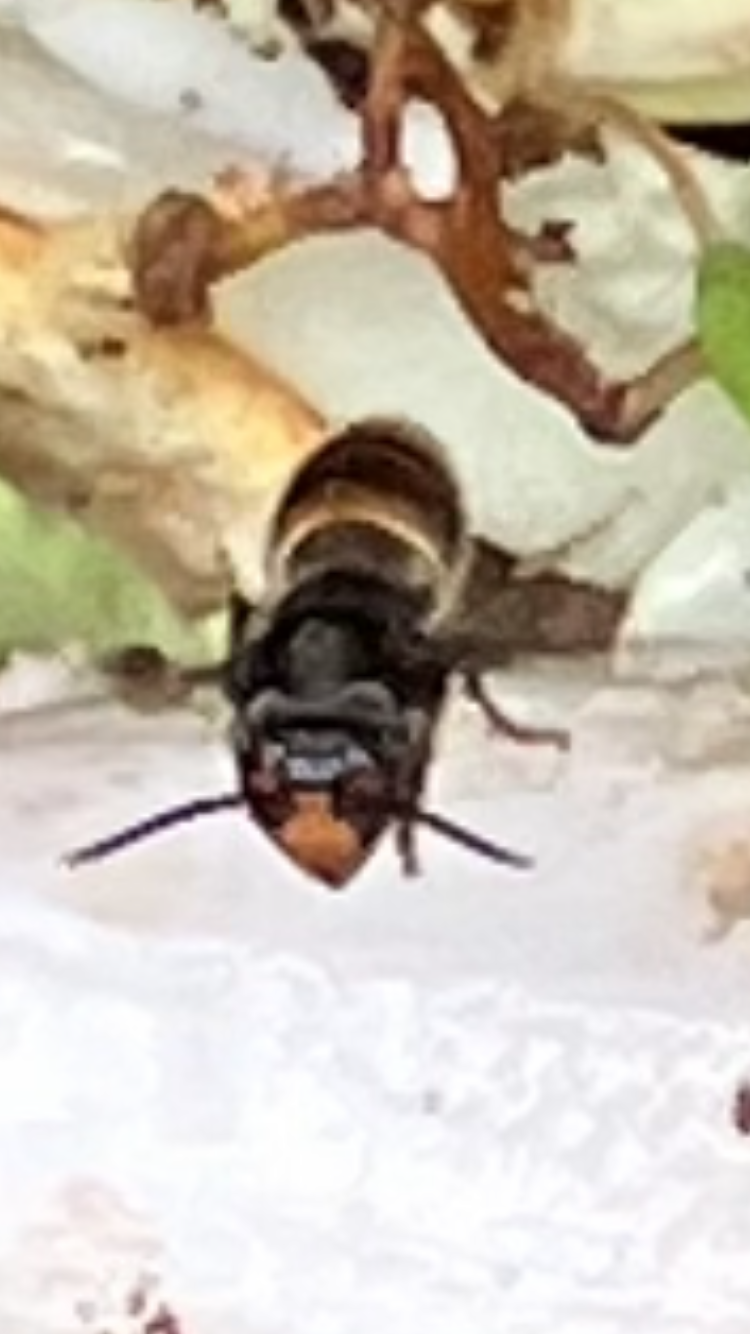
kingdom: Animalia
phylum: Arthropoda
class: Insecta
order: Hymenoptera
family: Vespidae
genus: Vespa
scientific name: Vespa velutina
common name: Asian hornet
